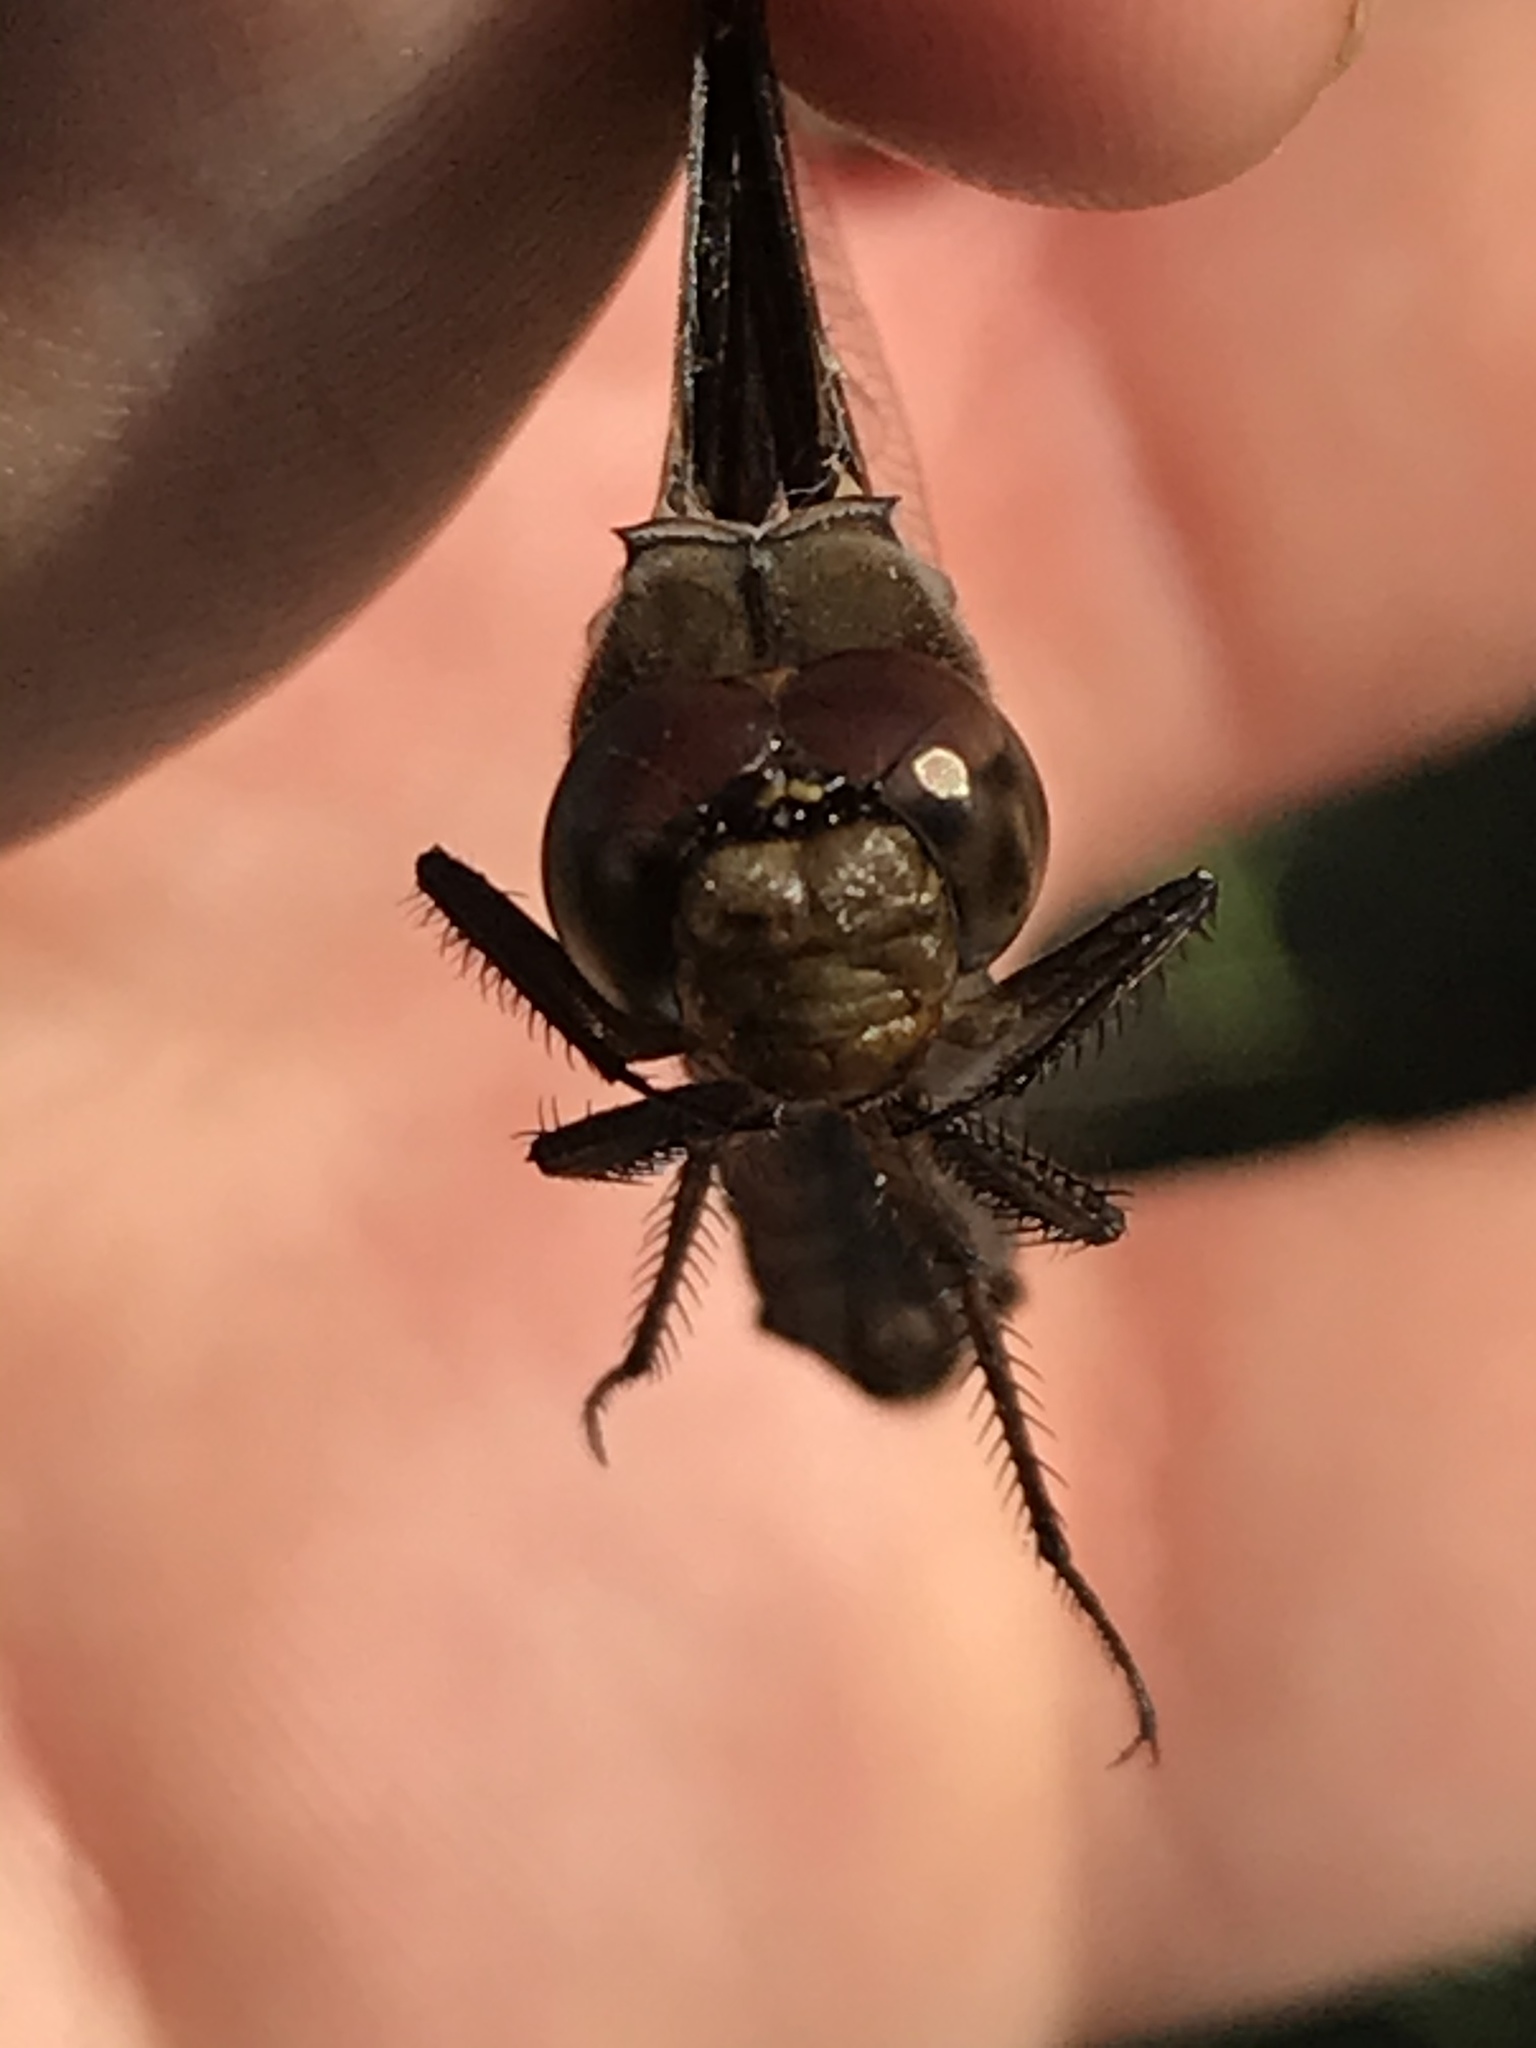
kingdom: Animalia
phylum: Arthropoda
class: Insecta
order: Odonata
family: Libellulidae
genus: Plathemis
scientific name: Plathemis lydia
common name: Common whitetail
